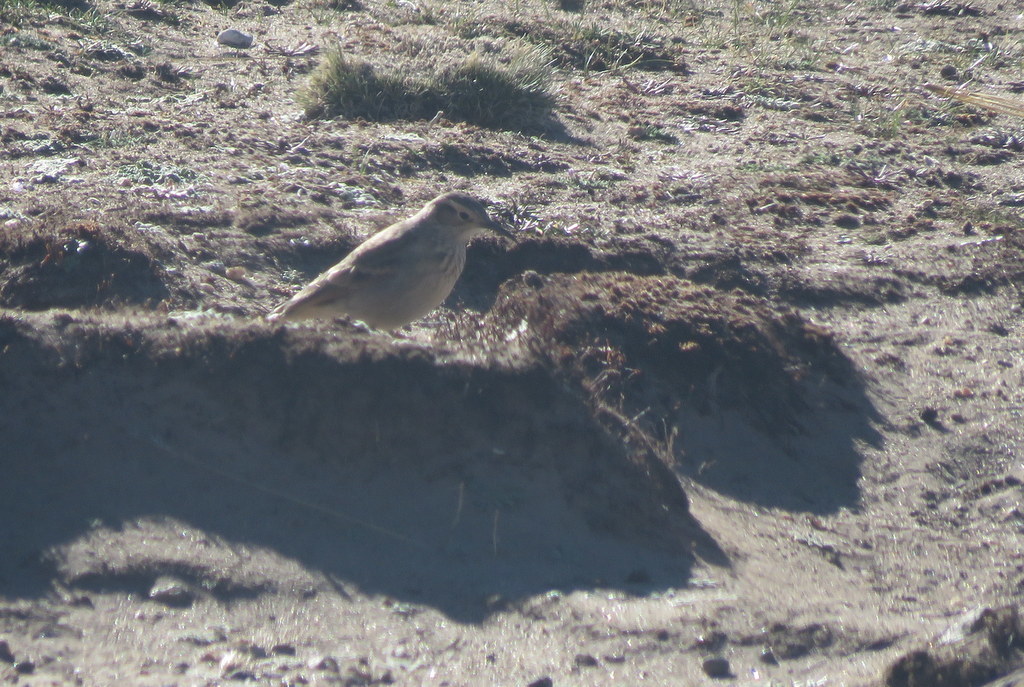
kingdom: Animalia
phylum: Chordata
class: Aves
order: Passeriformes
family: Furnariidae
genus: Geositta
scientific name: Geositta tenuirostris
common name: Slender-billed miner
